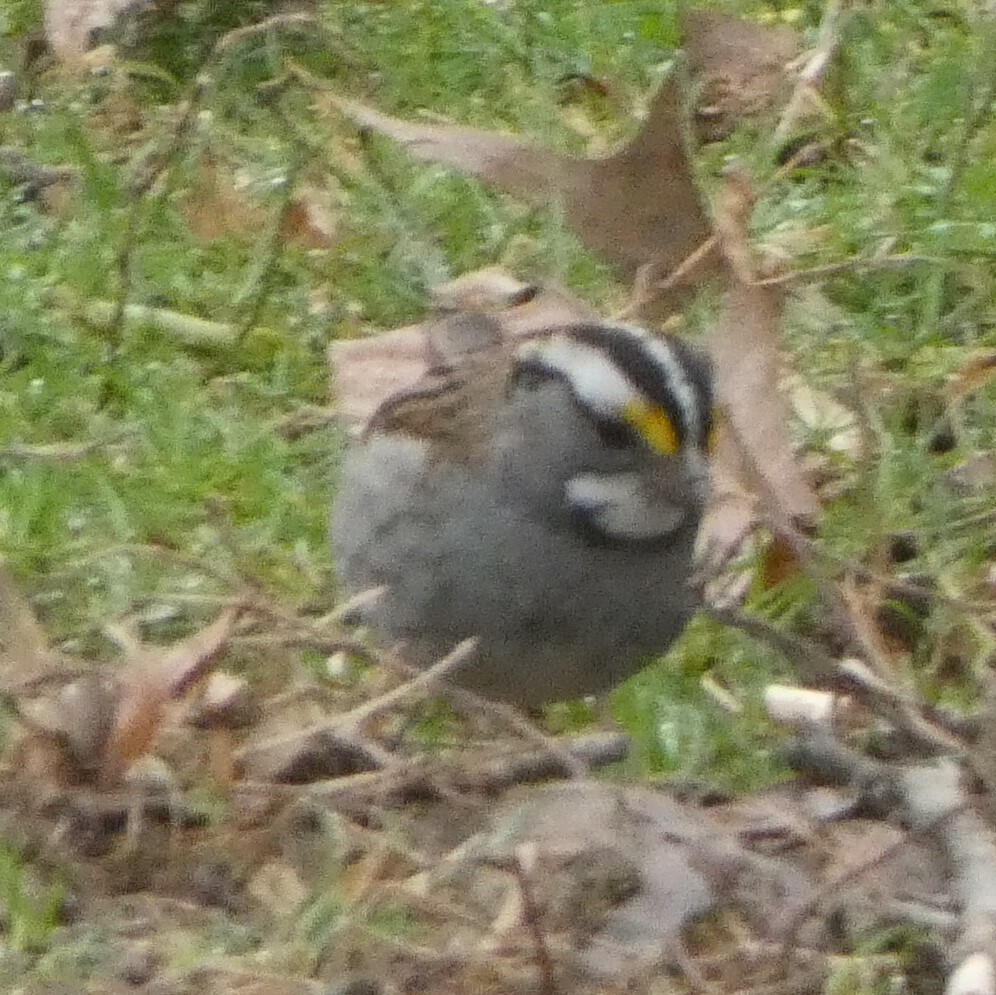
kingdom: Animalia
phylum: Chordata
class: Aves
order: Passeriformes
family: Passerellidae
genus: Zonotrichia
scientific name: Zonotrichia albicollis
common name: White-throated sparrow
